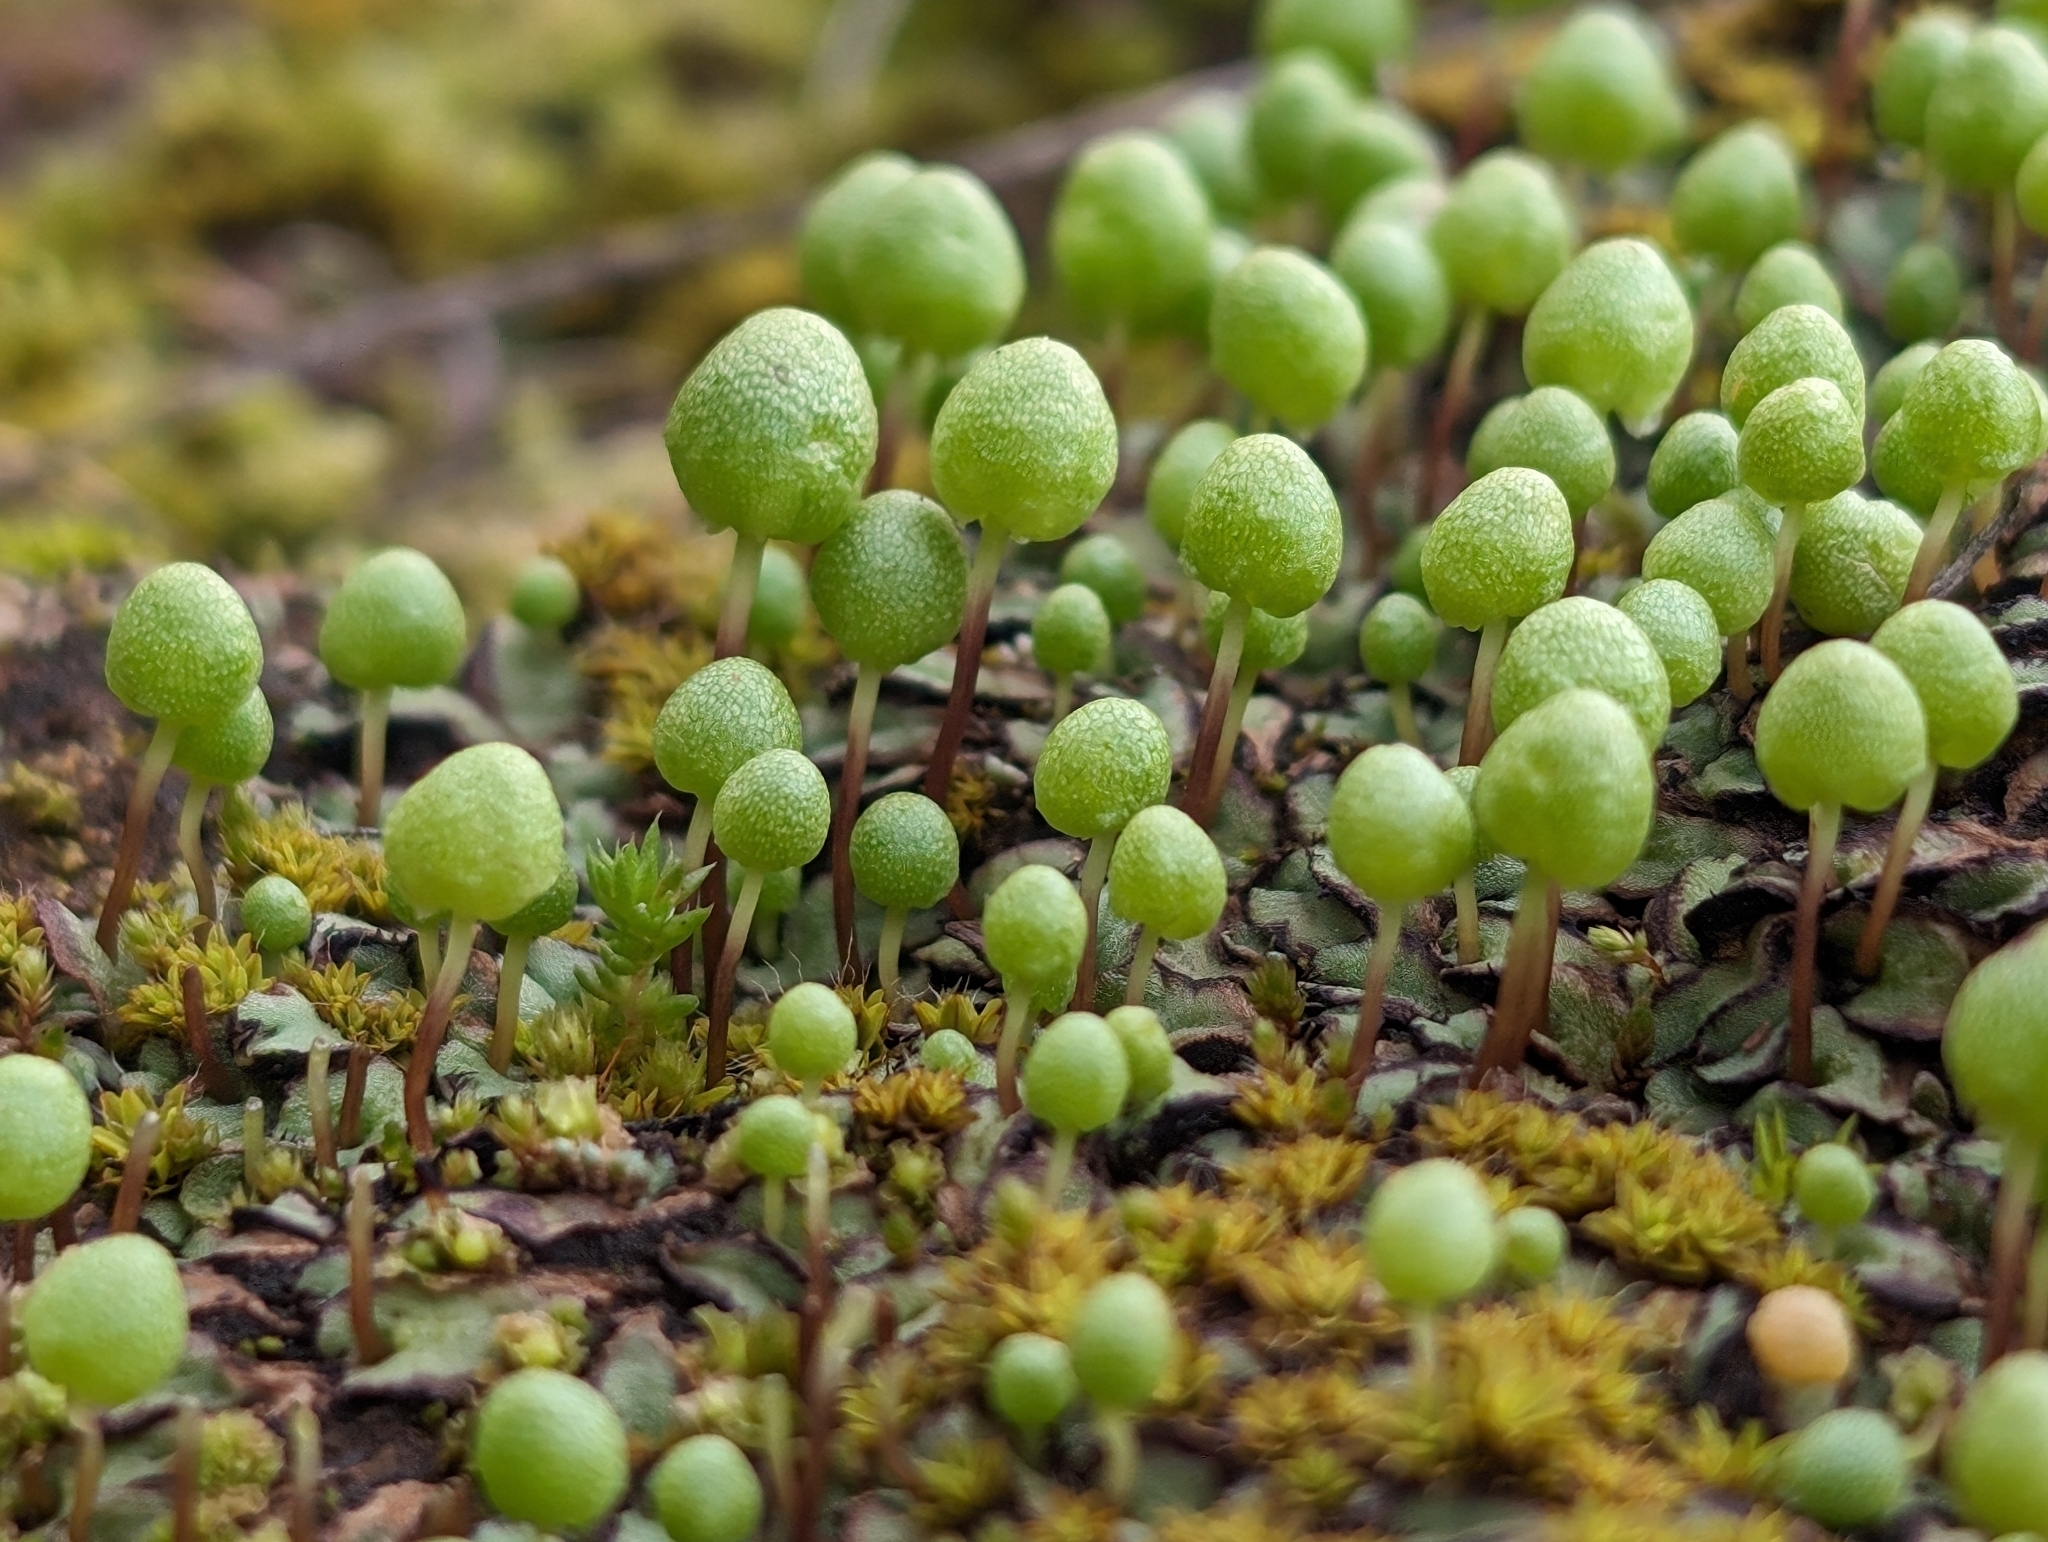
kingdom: Plantae
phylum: Marchantiophyta
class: Marchantiopsida
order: Marchantiales
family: Aytoniaceae
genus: Asterella
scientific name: Asterella palmeri
